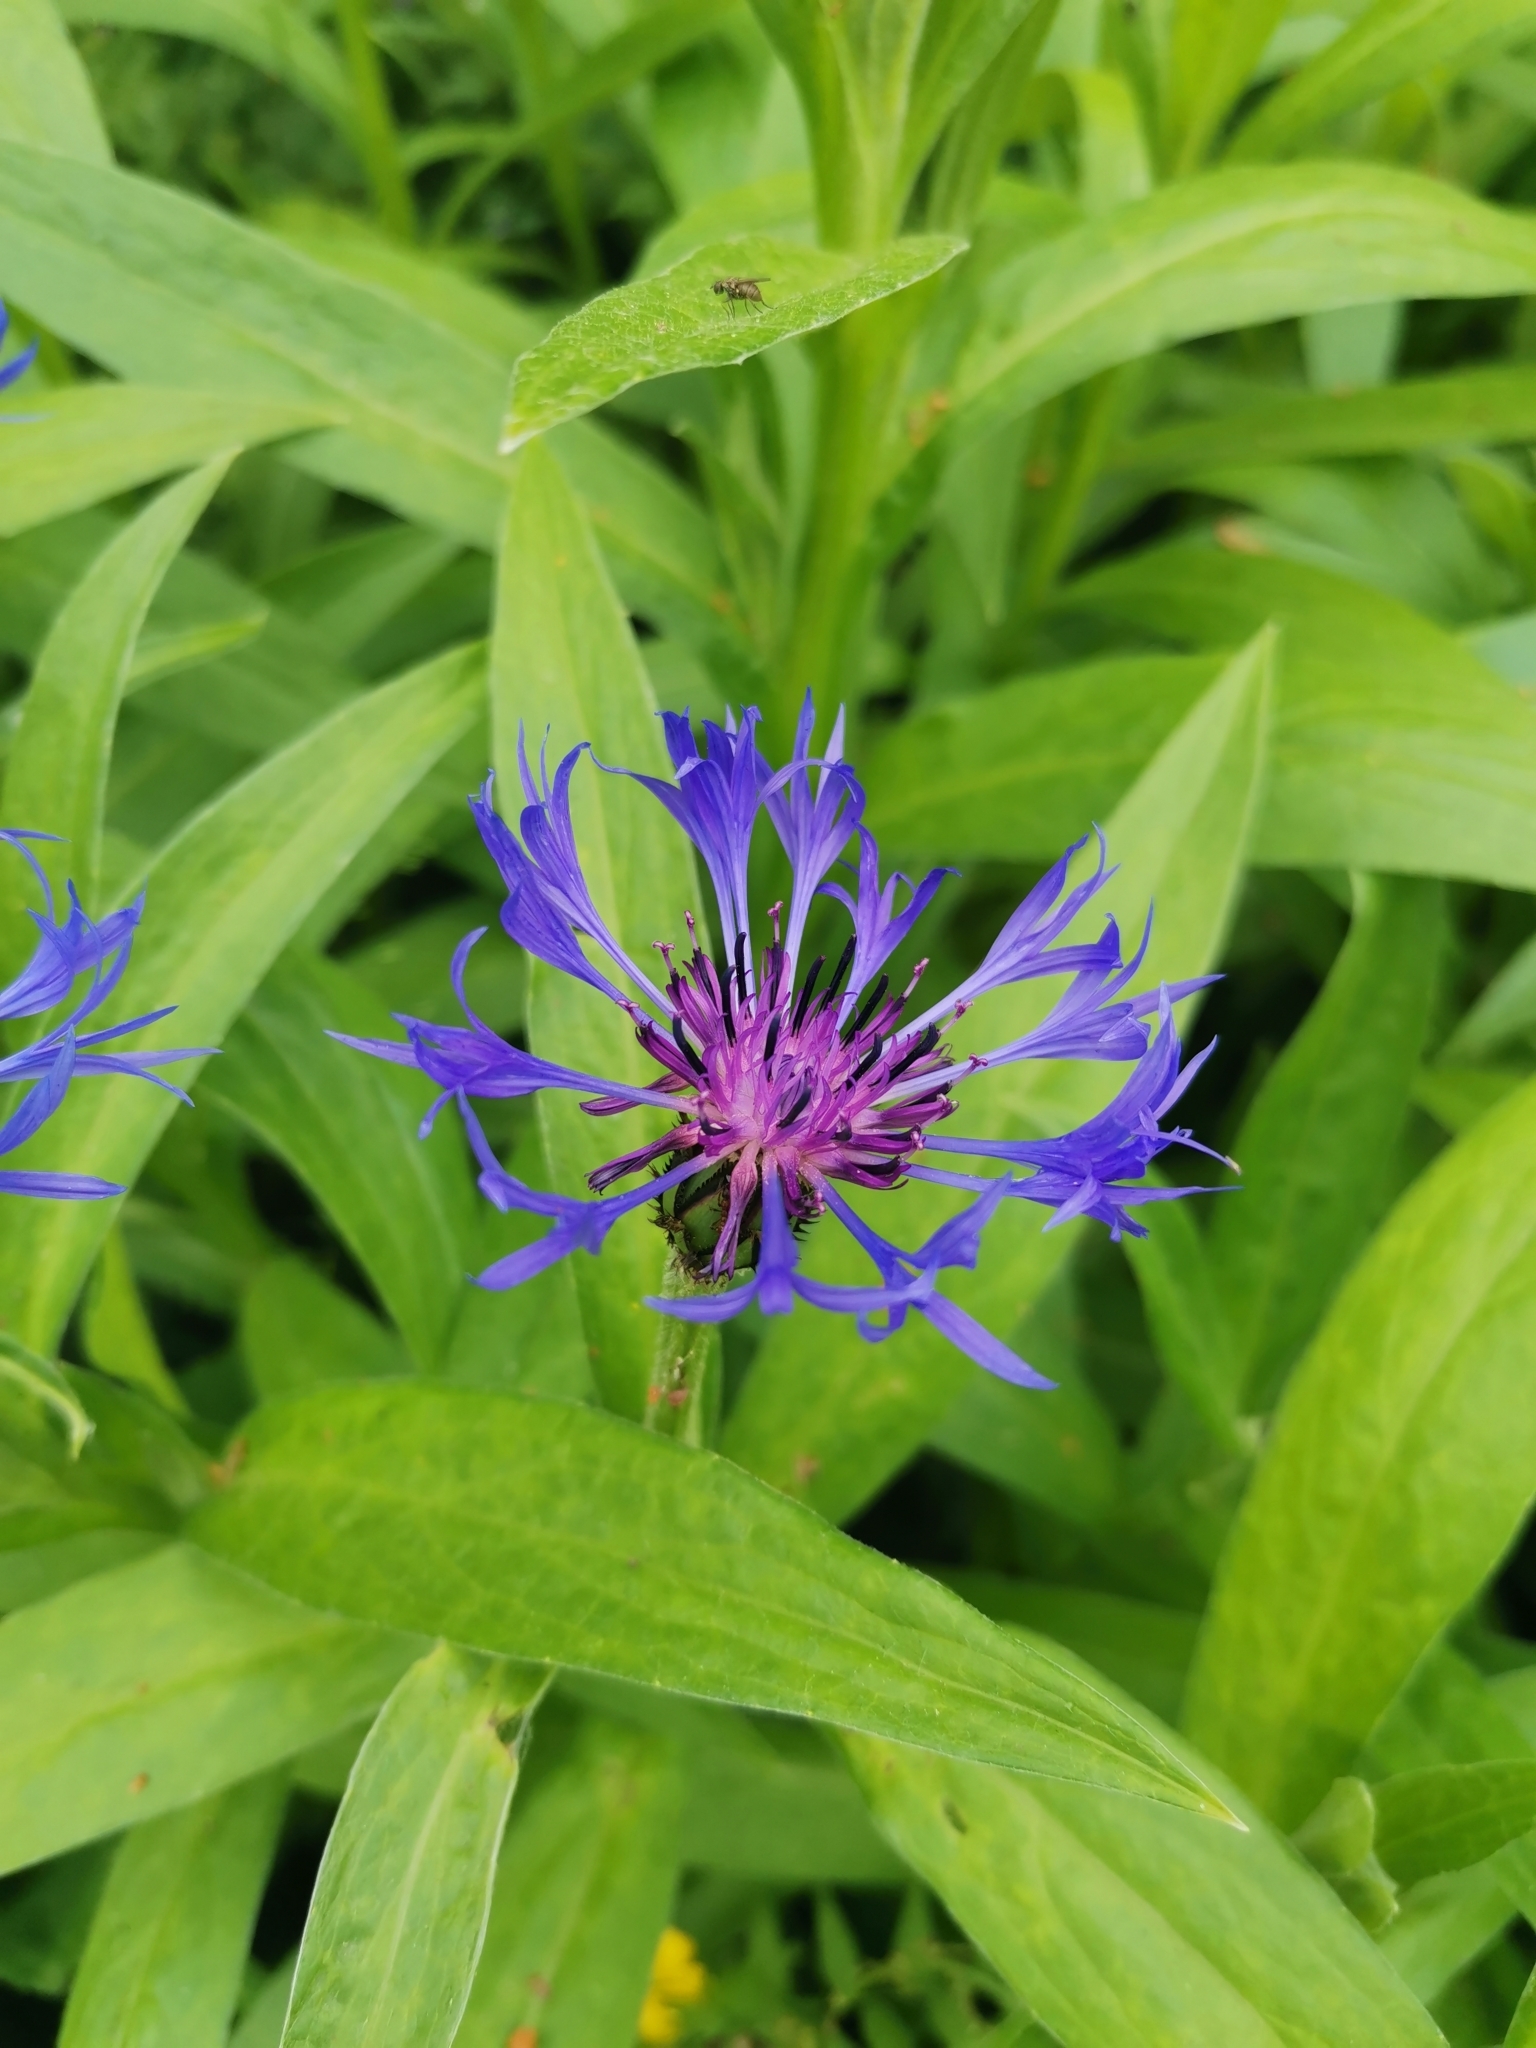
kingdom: Plantae
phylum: Tracheophyta
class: Magnoliopsida
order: Asterales
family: Asteraceae
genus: Centaurea
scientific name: Centaurea montana
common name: Perennial cornflower
